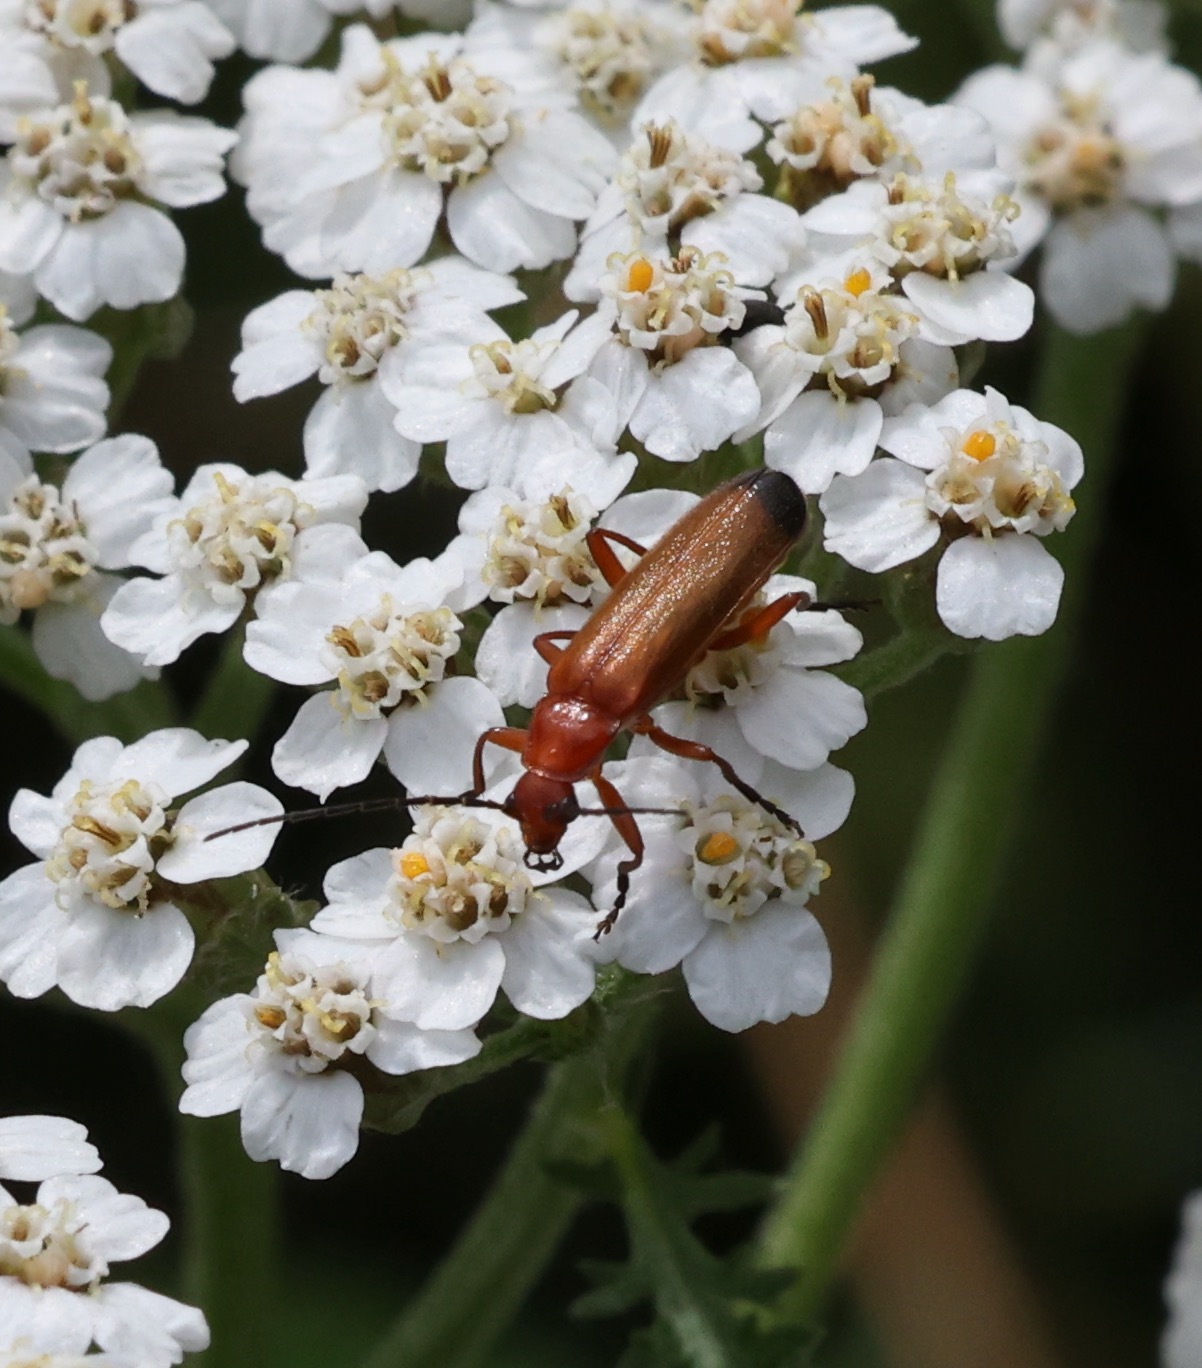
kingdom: Animalia
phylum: Arthropoda
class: Insecta
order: Coleoptera
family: Cantharidae
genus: Rhagonycha
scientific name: Rhagonycha fulva
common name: Common red soldier beetle
